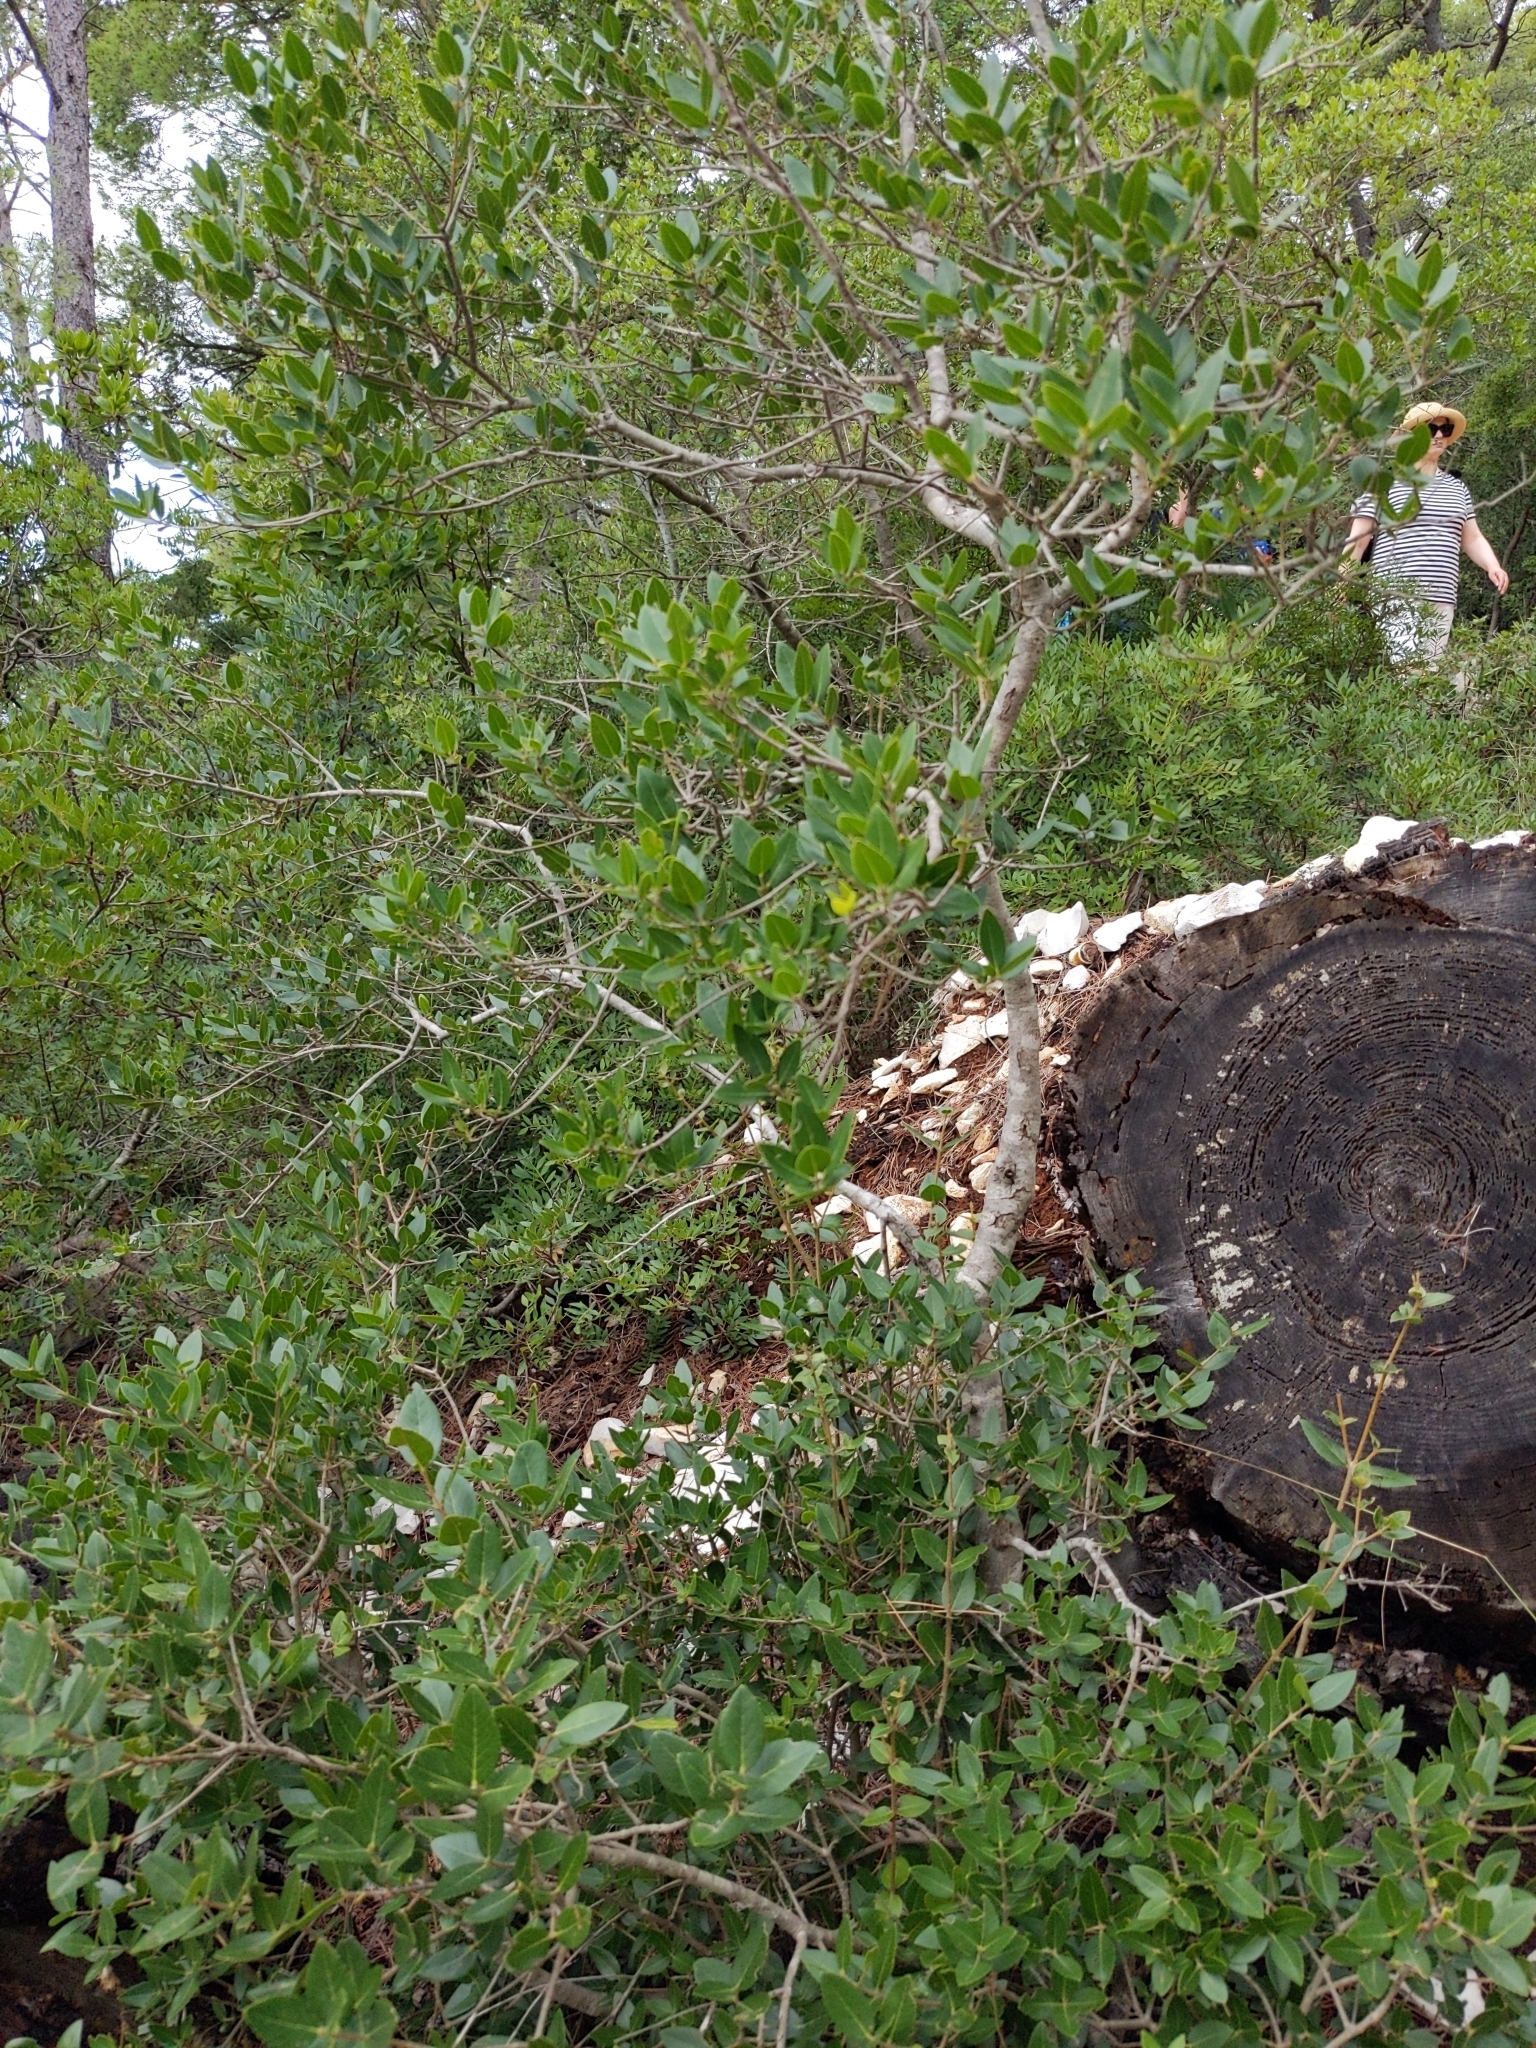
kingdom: Plantae
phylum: Tracheophyta
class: Magnoliopsida
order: Lamiales
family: Oleaceae
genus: Phillyrea
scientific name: Phillyrea latifolia
